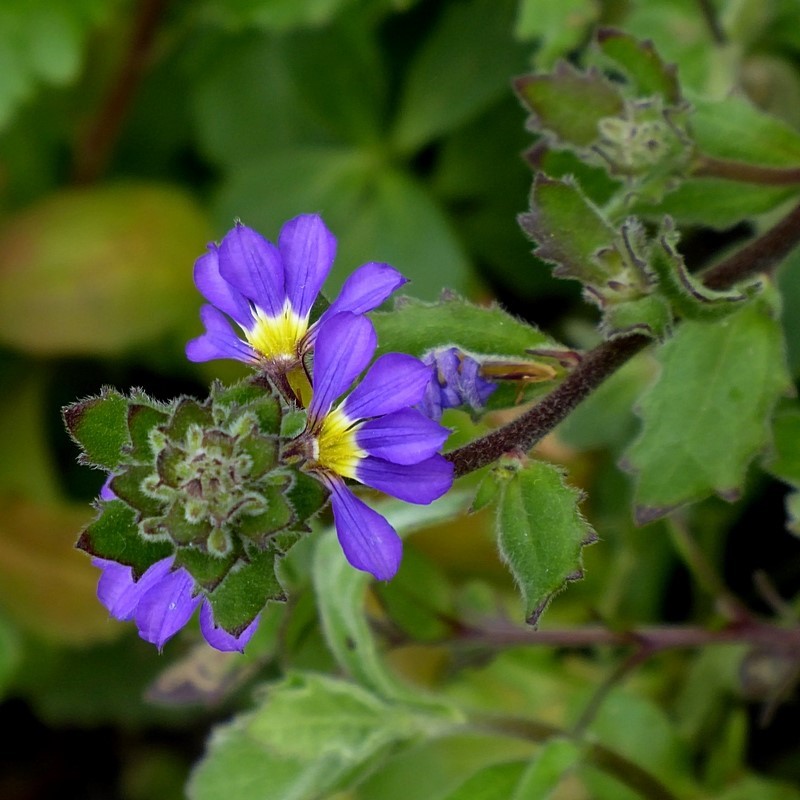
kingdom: Plantae
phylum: Tracheophyta
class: Magnoliopsida
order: Asterales
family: Goodeniaceae
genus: Scaevola
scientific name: Scaevola aemula
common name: Common fanflower
